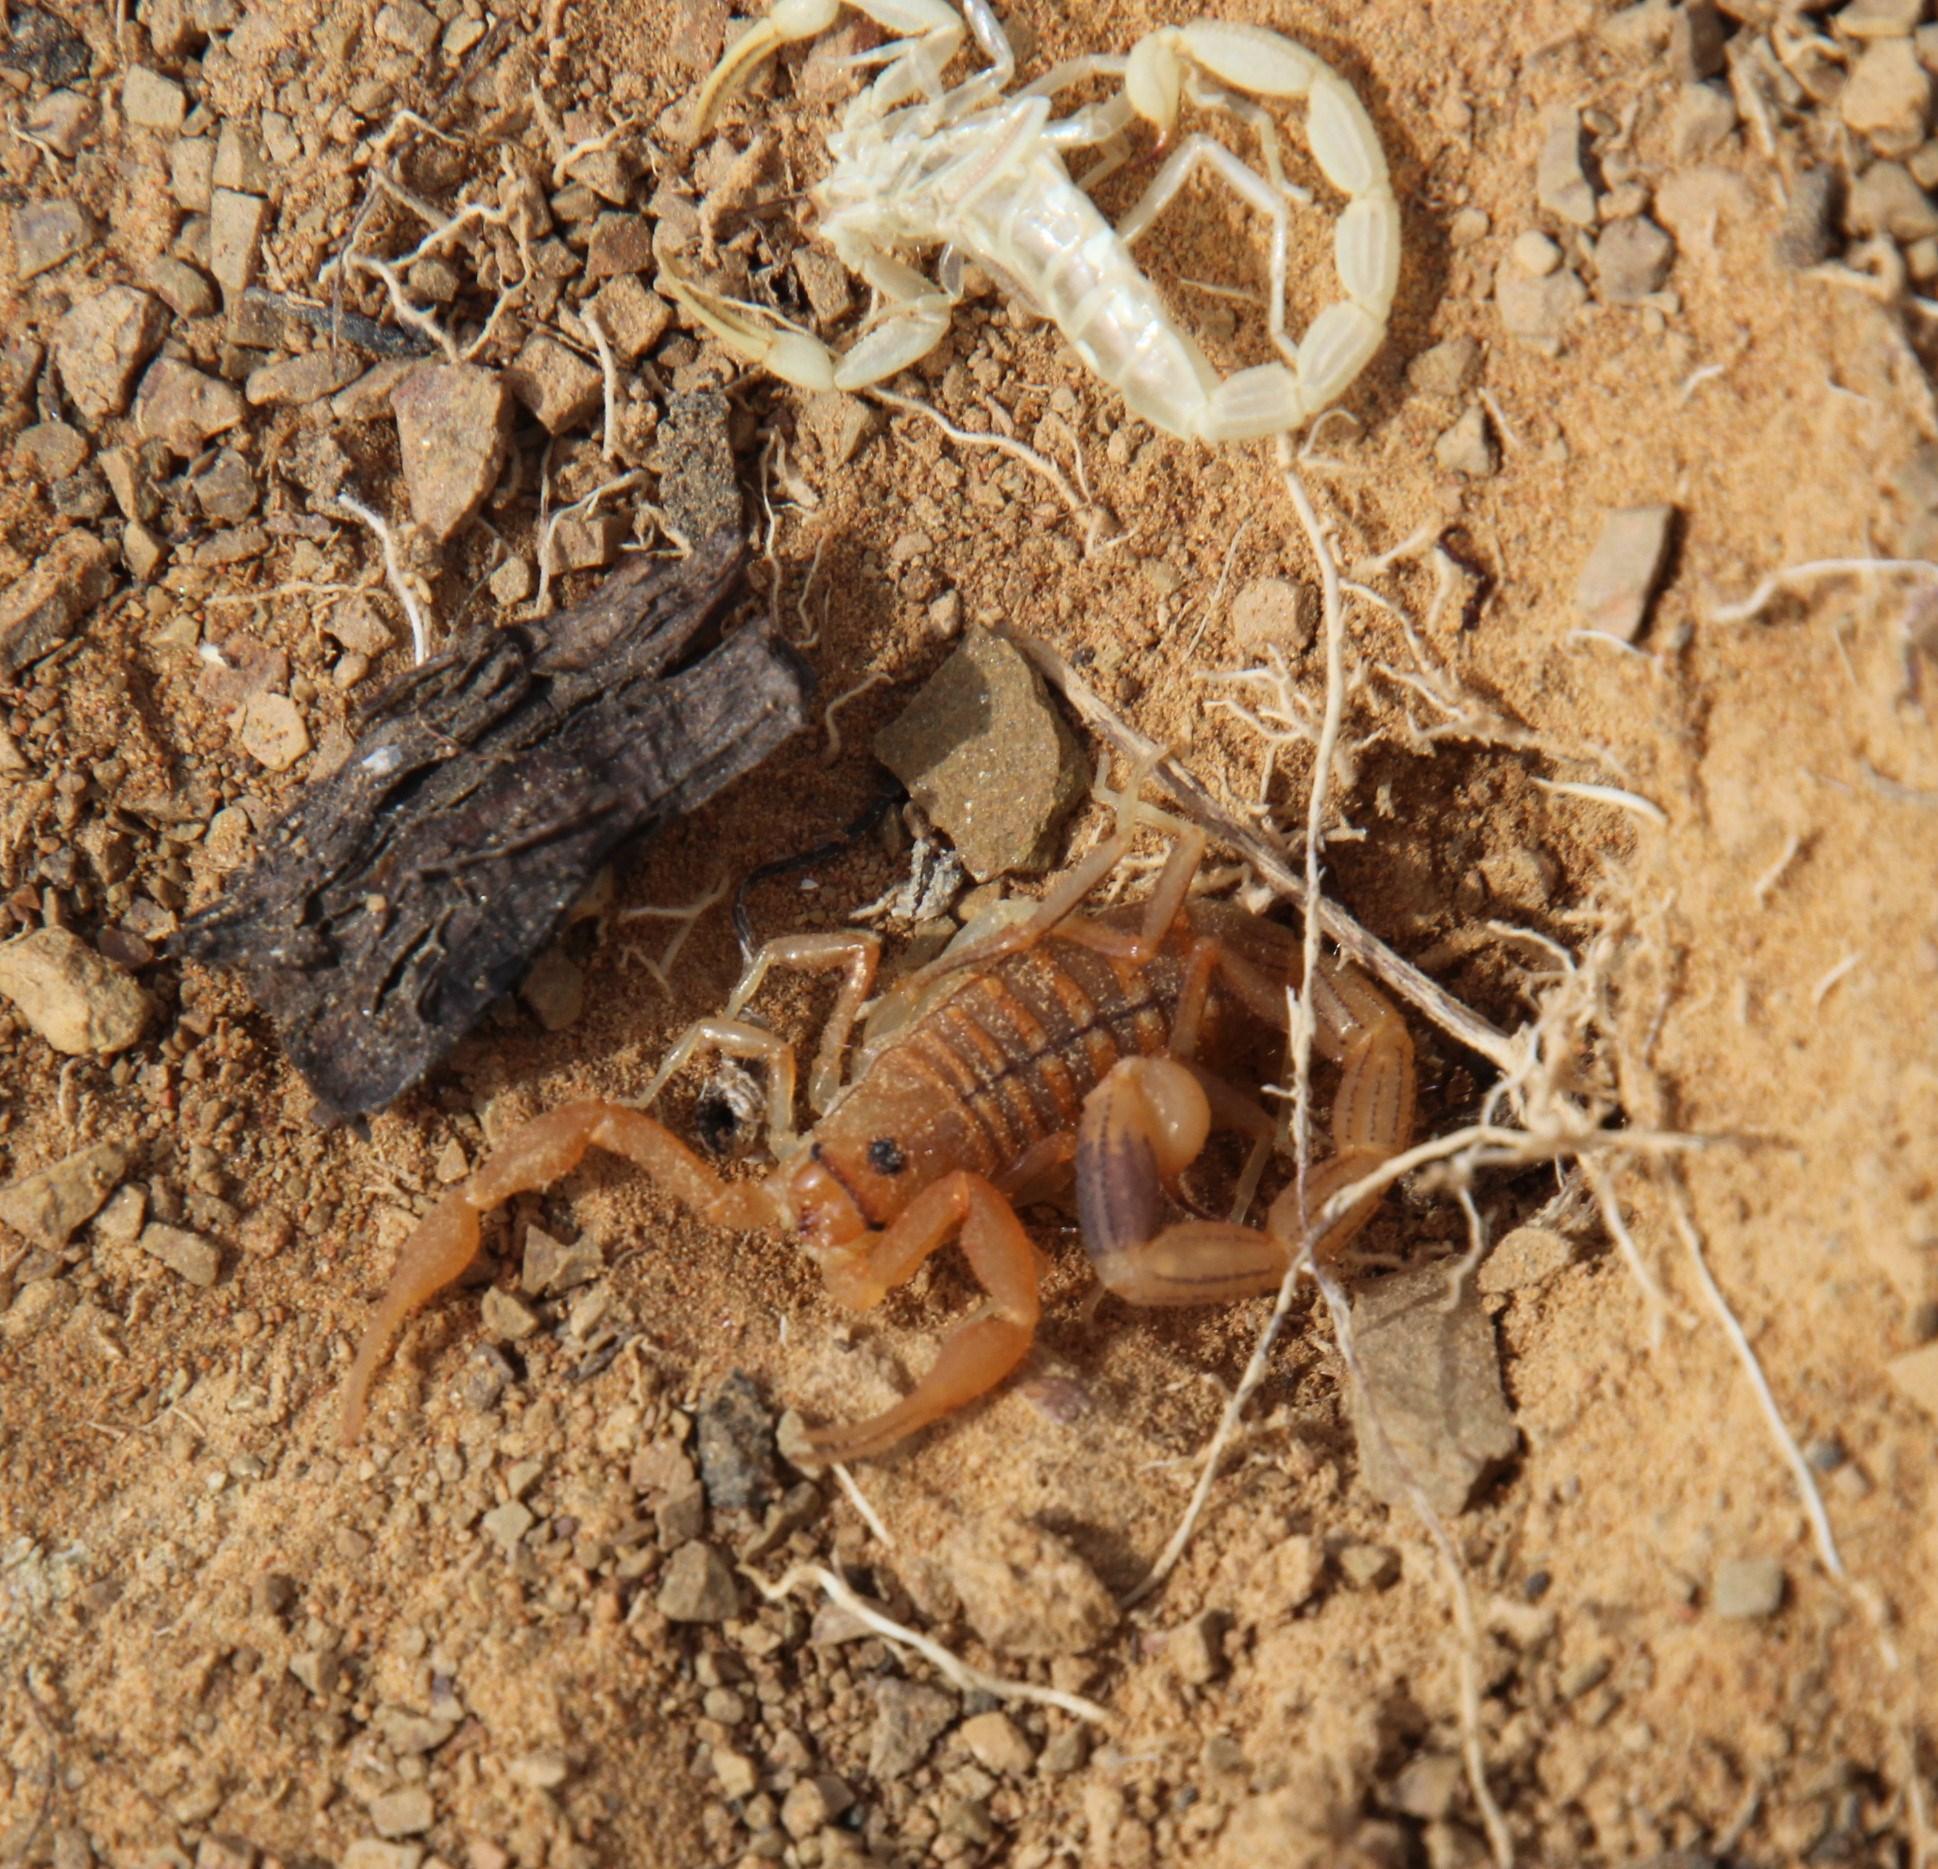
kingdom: Animalia
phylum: Arthropoda
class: Arachnida
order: Scorpiones
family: Buthidae
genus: Uroplectes
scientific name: Uroplectes carinatus
